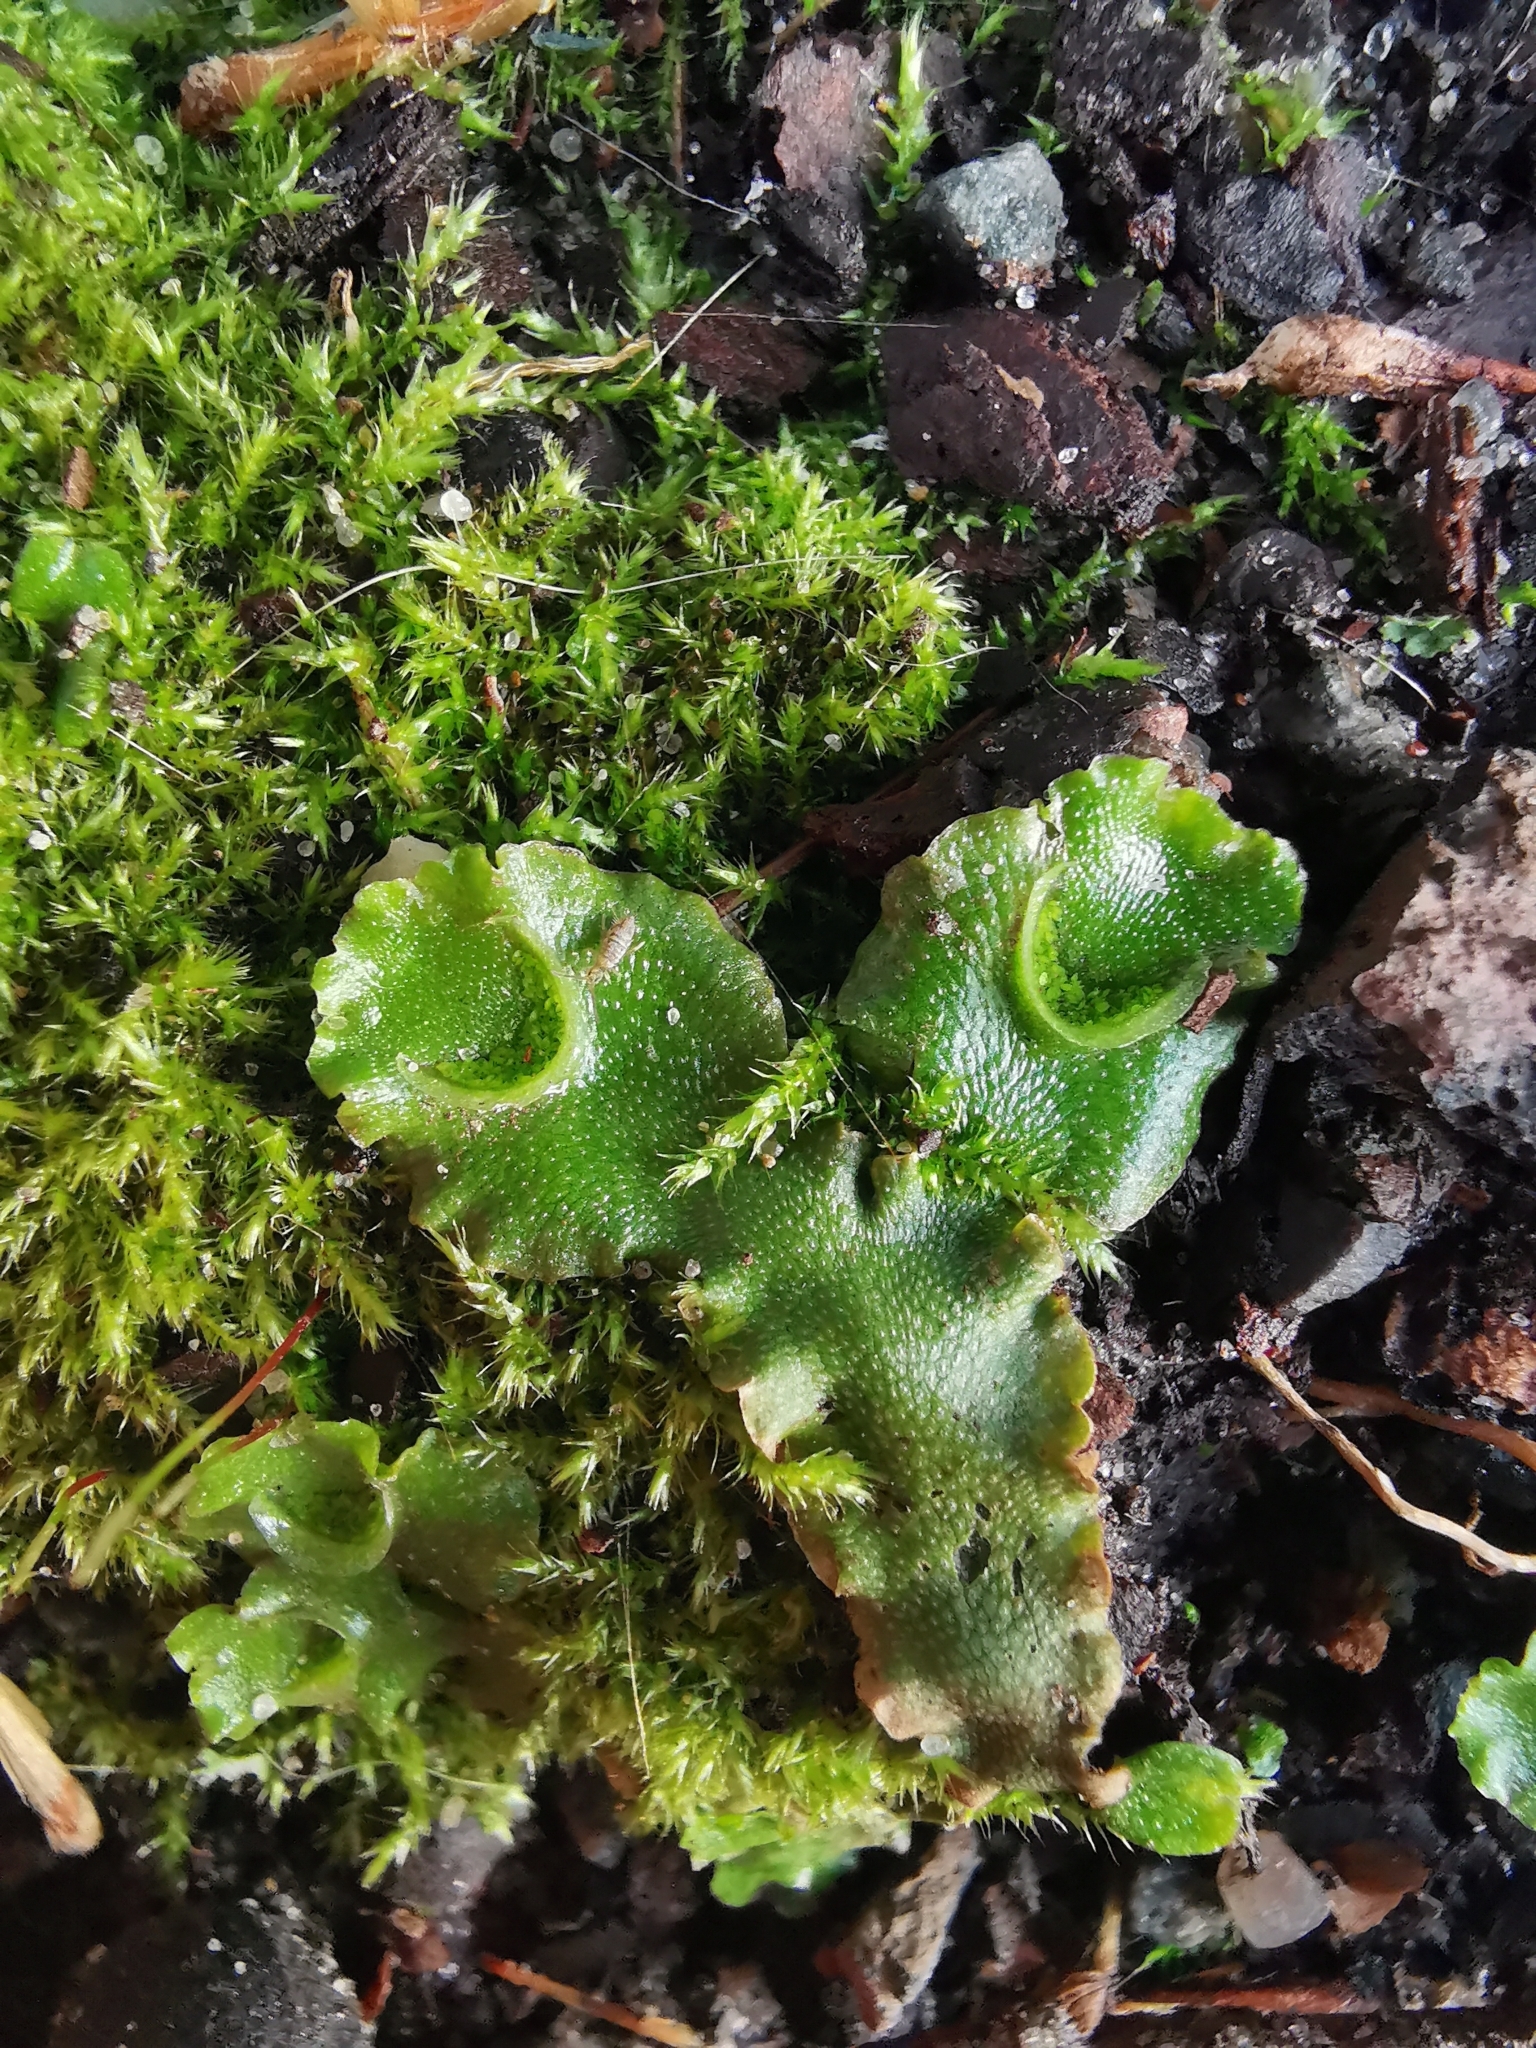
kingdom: Plantae
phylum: Marchantiophyta
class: Marchantiopsida
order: Lunulariales
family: Lunulariaceae
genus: Lunularia
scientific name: Lunularia cruciata
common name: Crescent-cup liverwort
